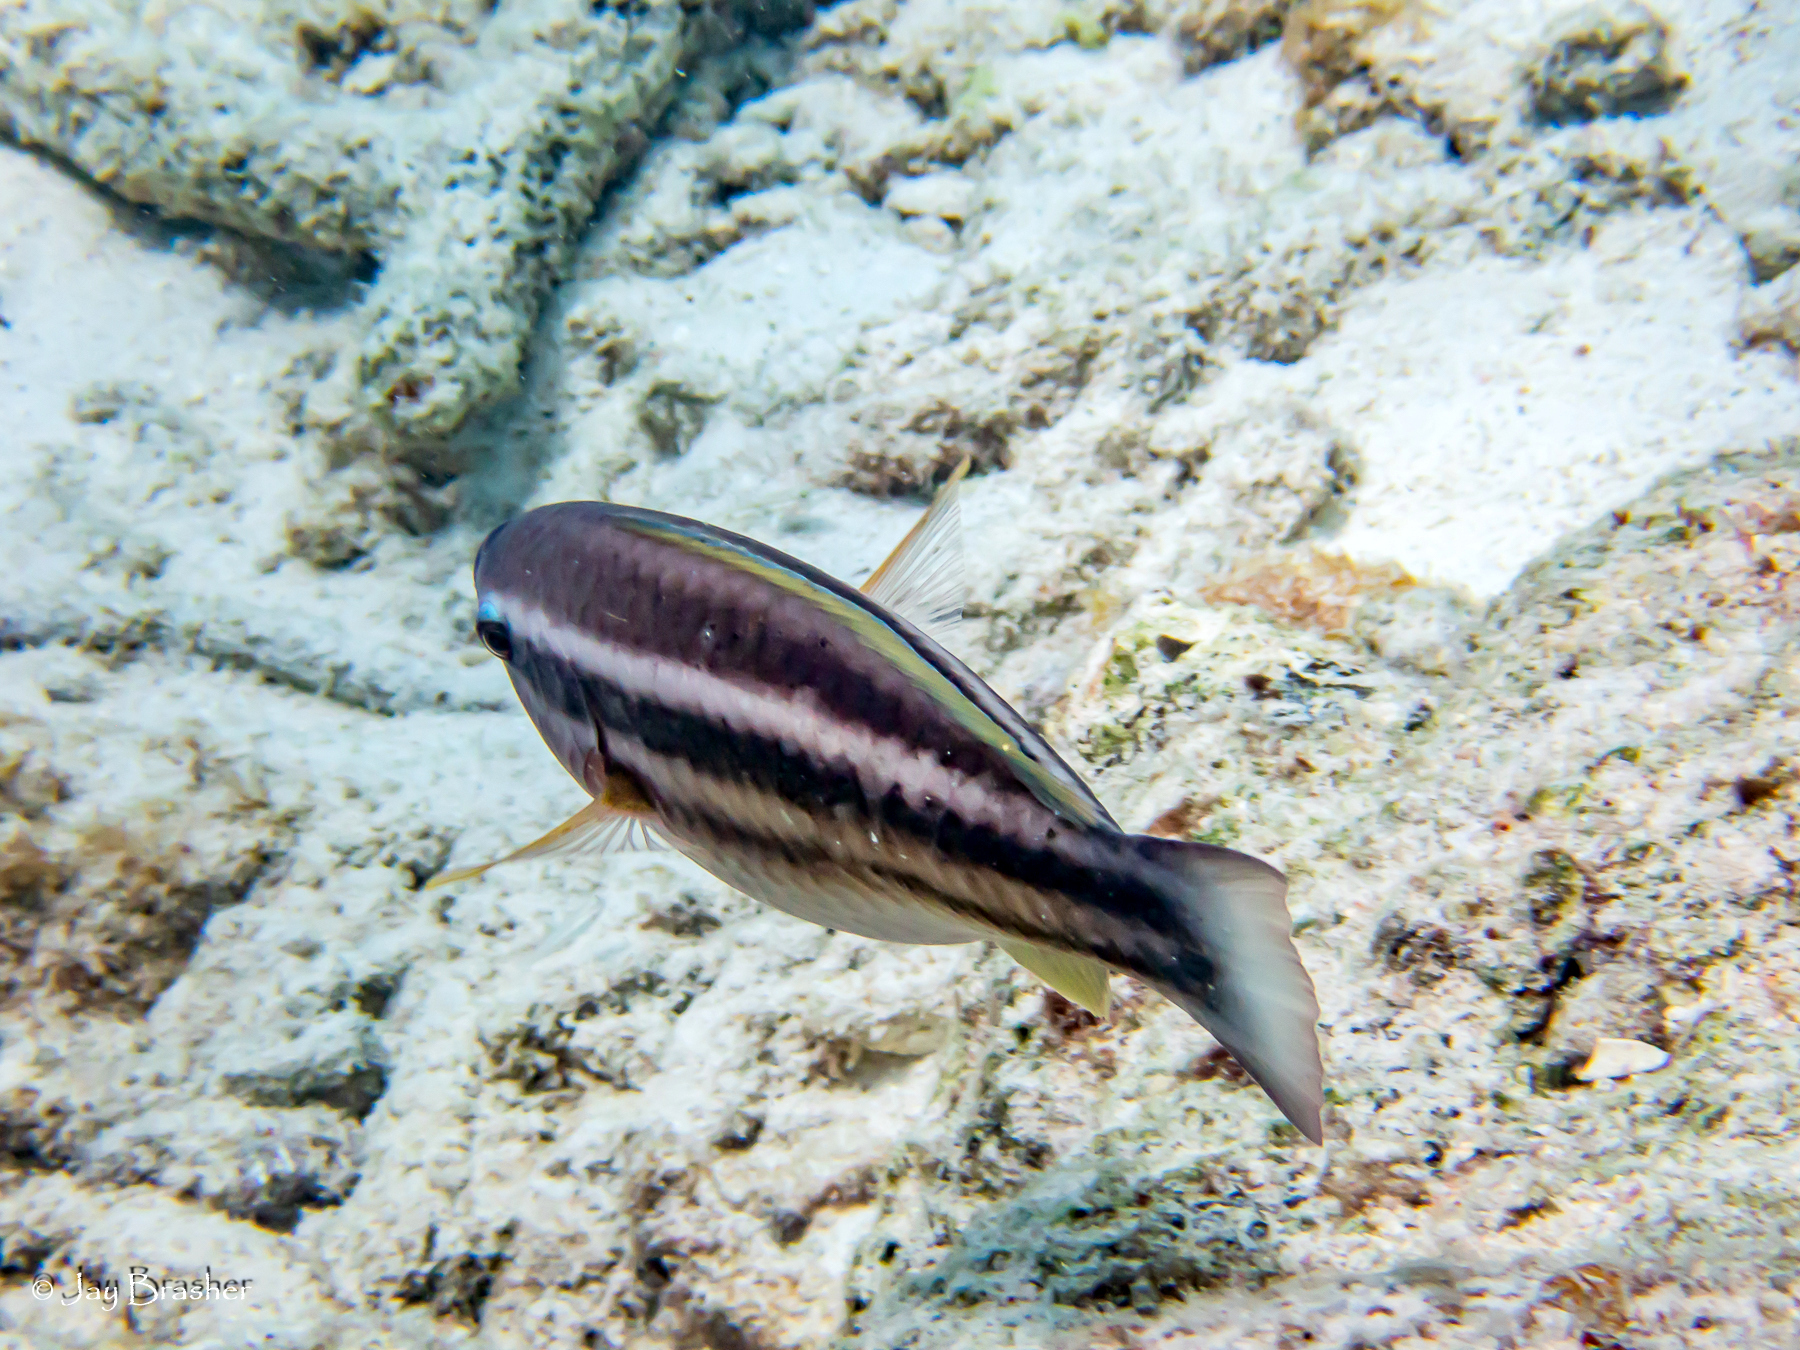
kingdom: Animalia
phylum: Chordata
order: Perciformes
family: Scaridae
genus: Scarus
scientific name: Scarus taeniopterus
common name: Princess parrotfish
